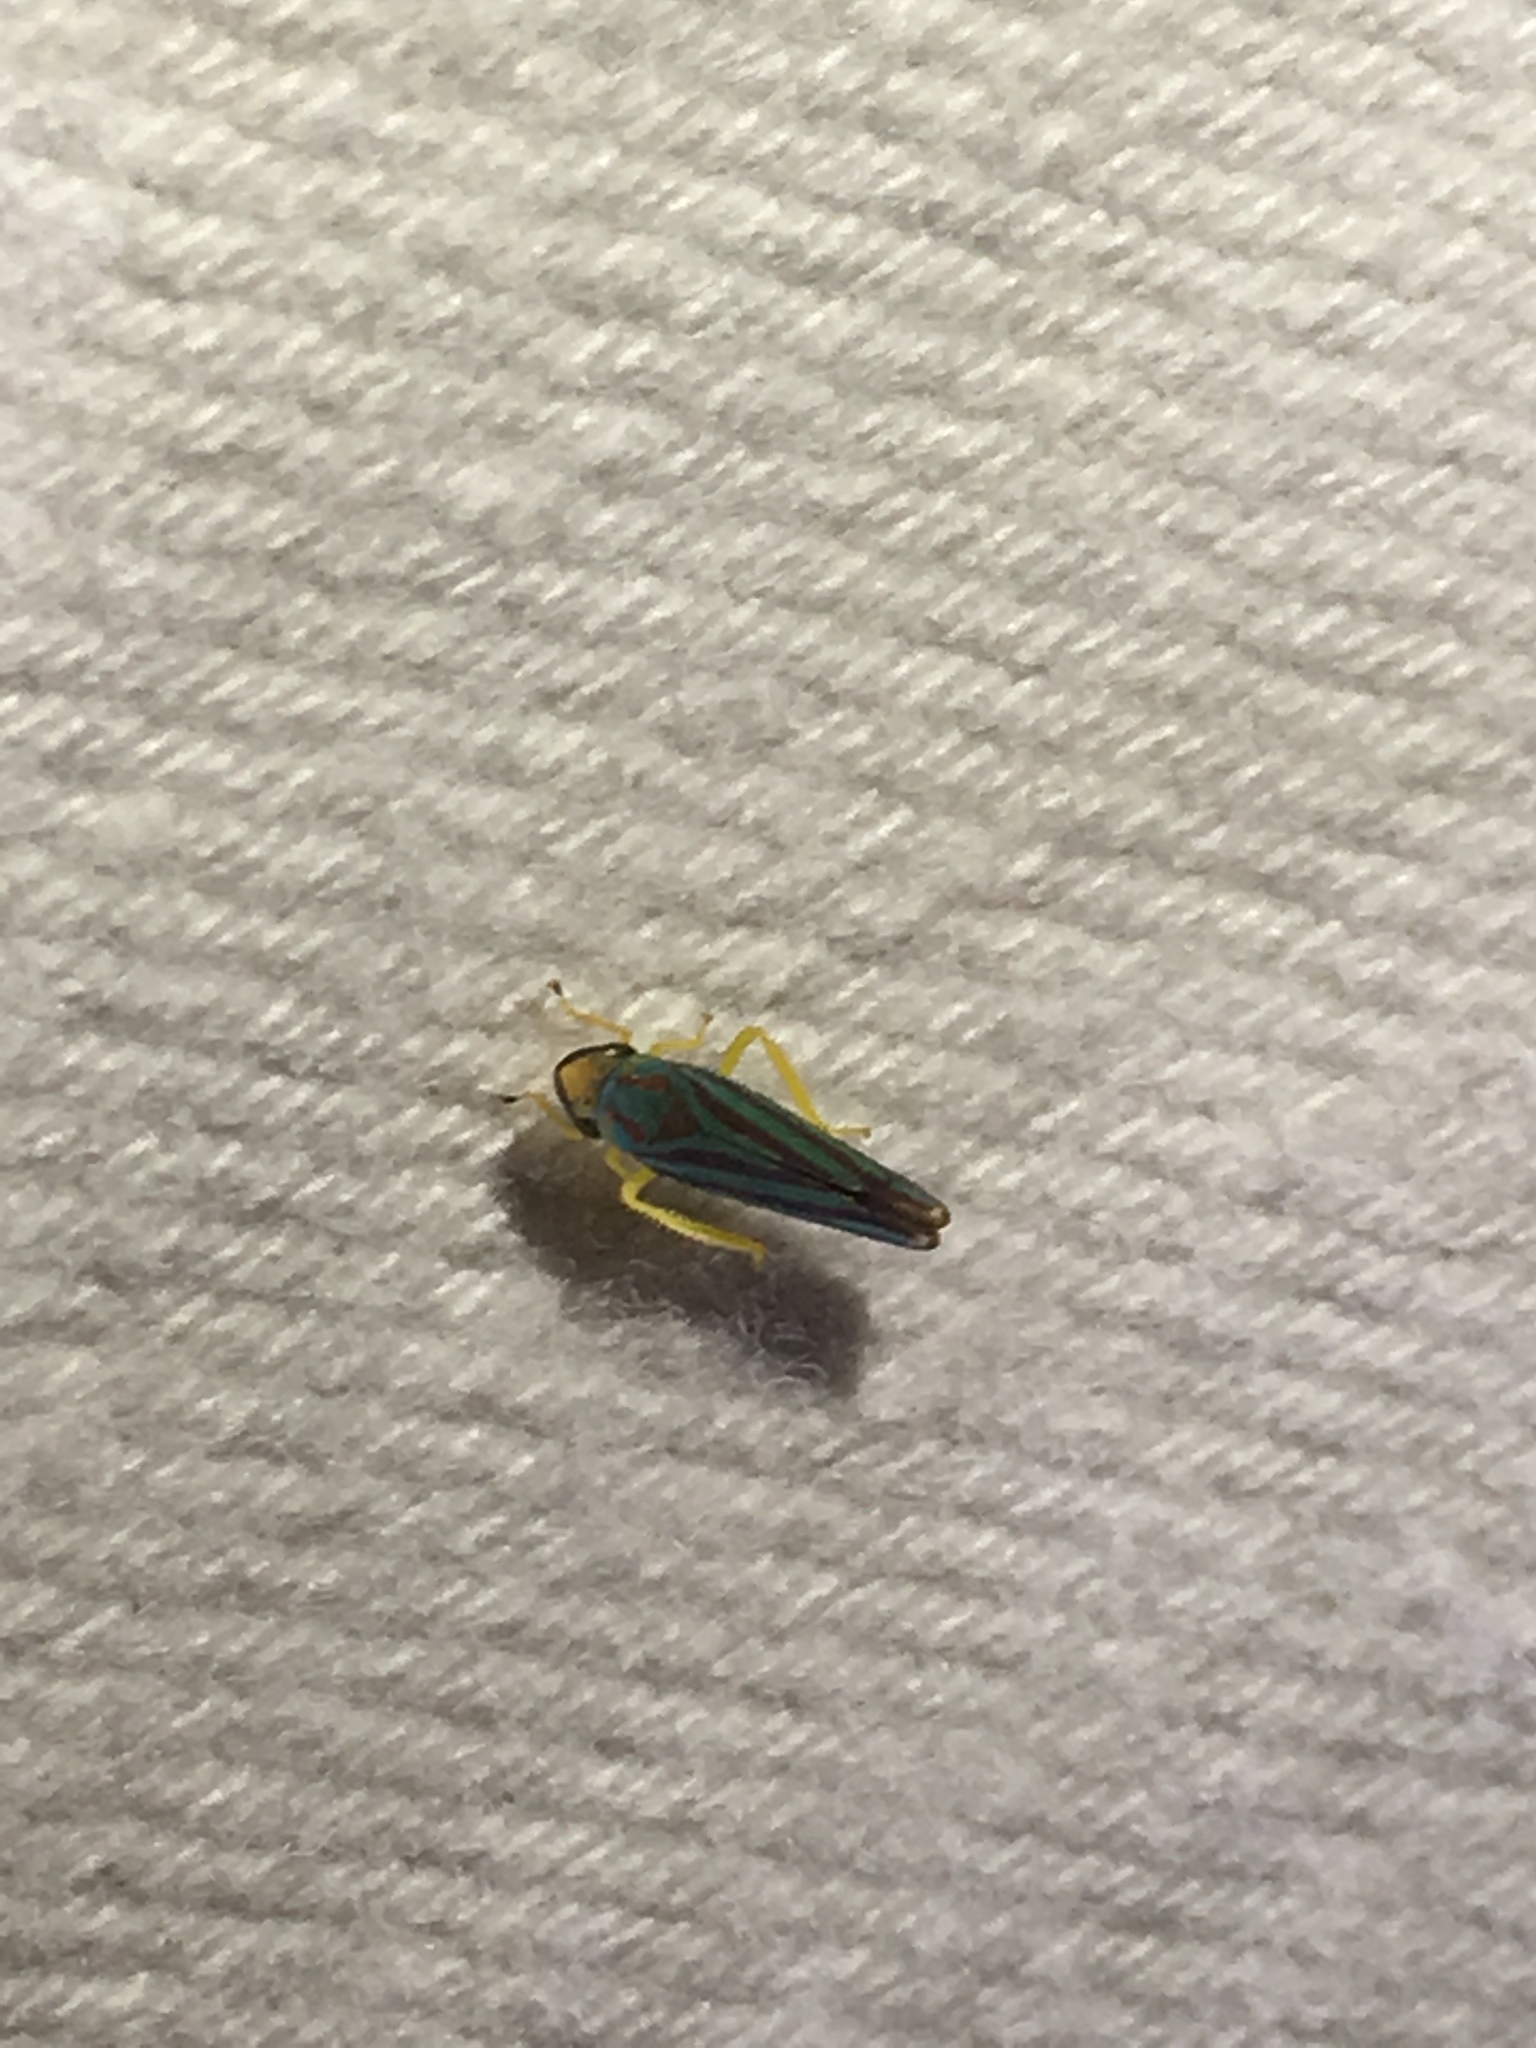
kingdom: Animalia
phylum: Arthropoda
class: Insecta
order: Hemiptera
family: Cicadellidae
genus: Graphocephala
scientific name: Graphocephala
